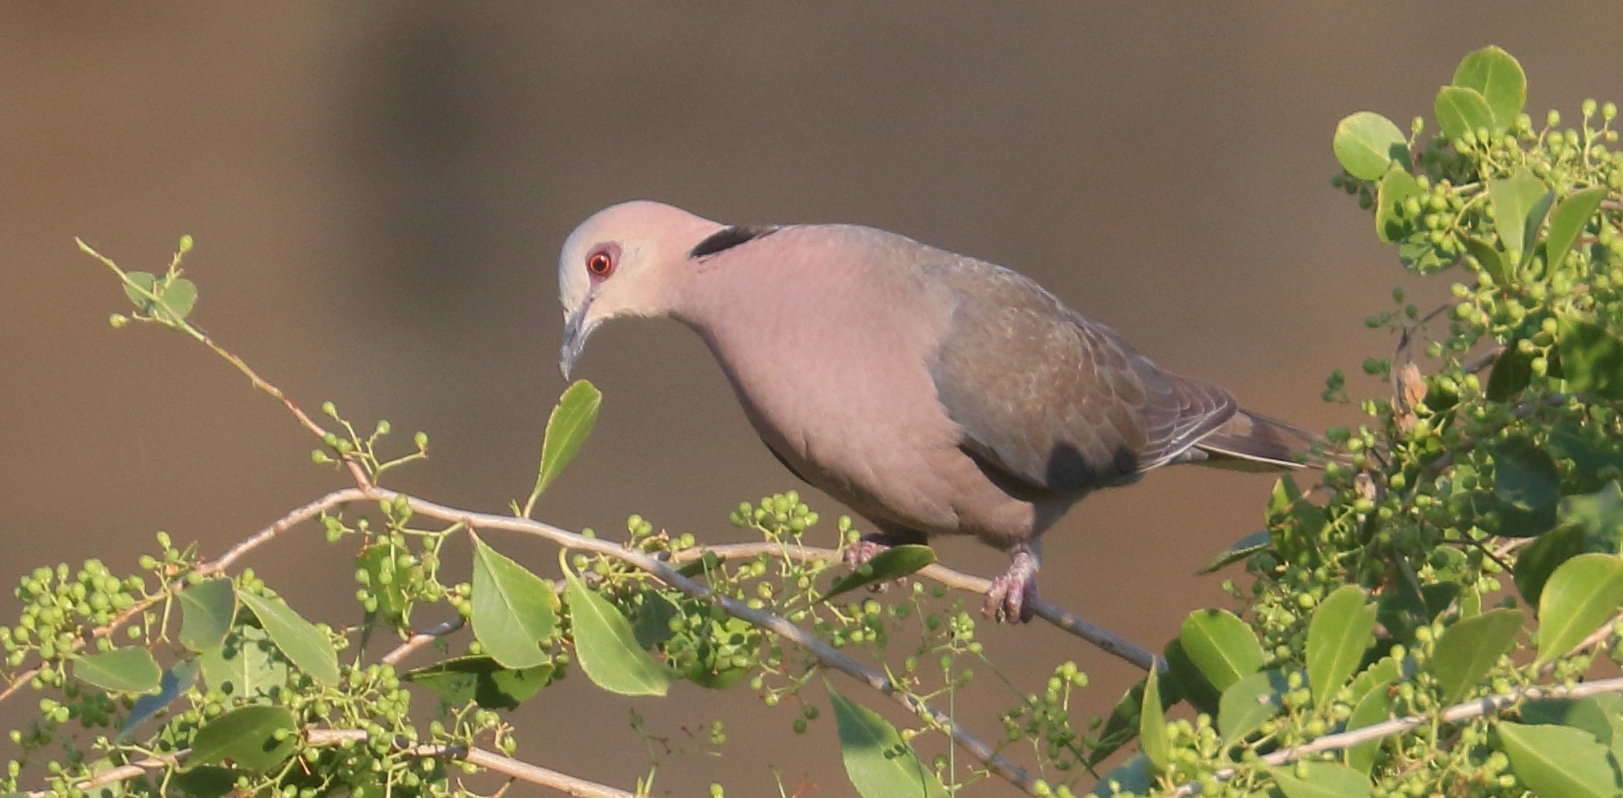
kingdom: Animalia
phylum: Chordata
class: Aves
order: Columbiformes
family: Columbidae
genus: Streptopelia
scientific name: Streptopelia semitorquata
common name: Red-eyed dove
